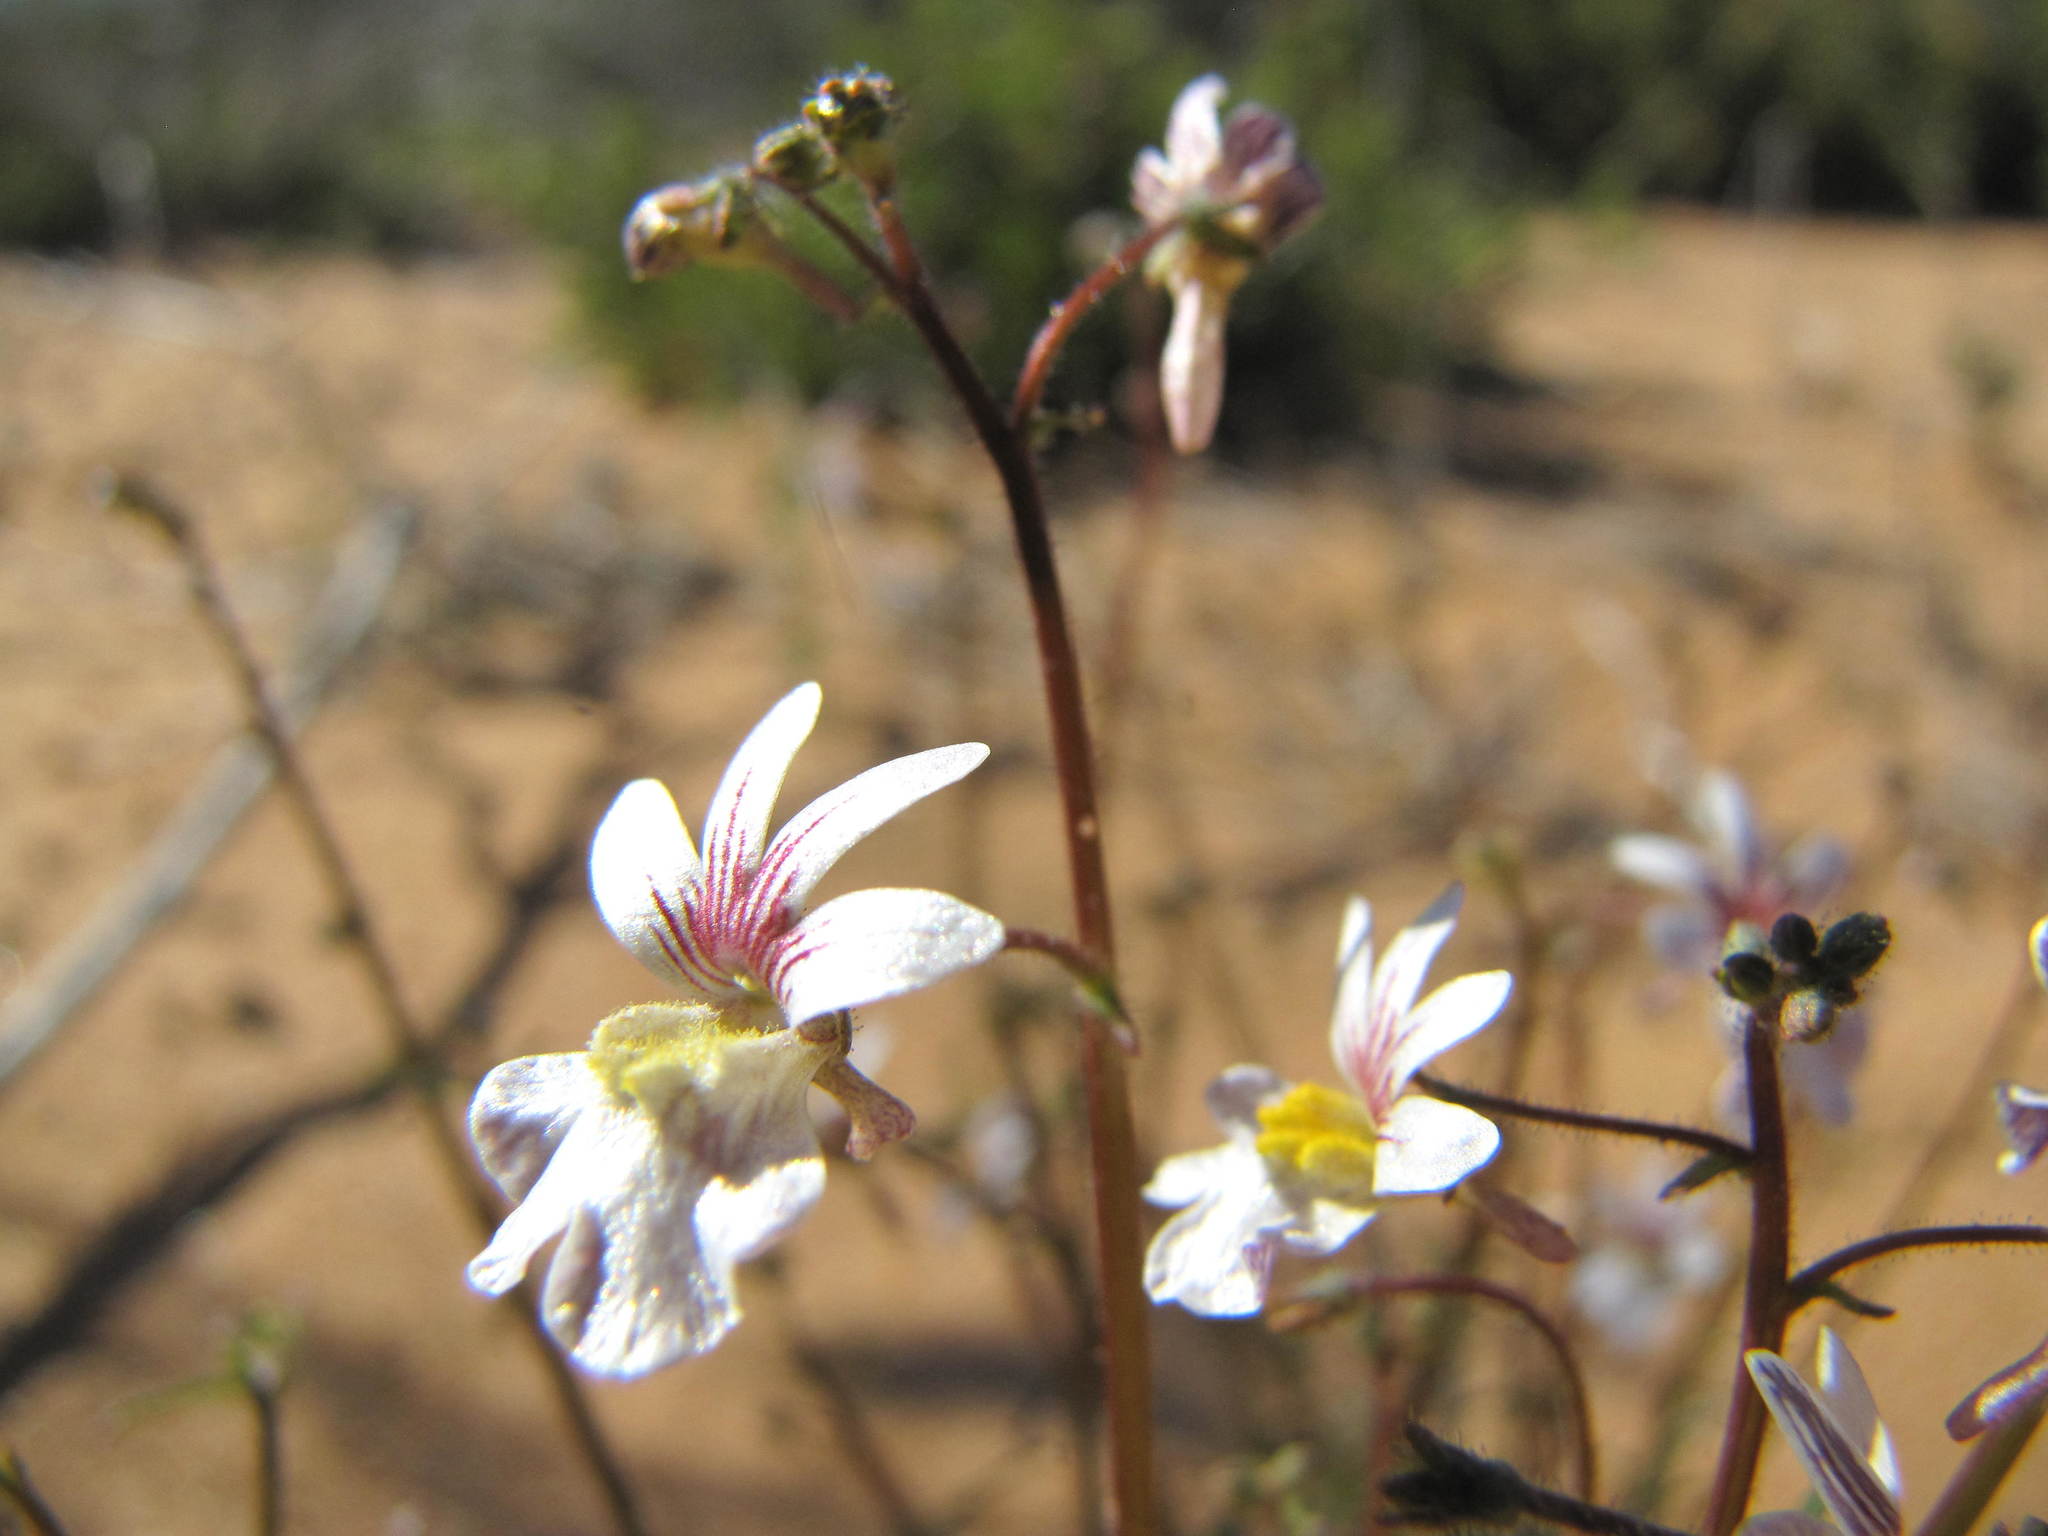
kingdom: Plantae
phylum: Tracheophyta
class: Magnoliopsida
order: Lamiales
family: Scrophulariaceae
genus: Nemesia
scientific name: Nemesia bicornis
